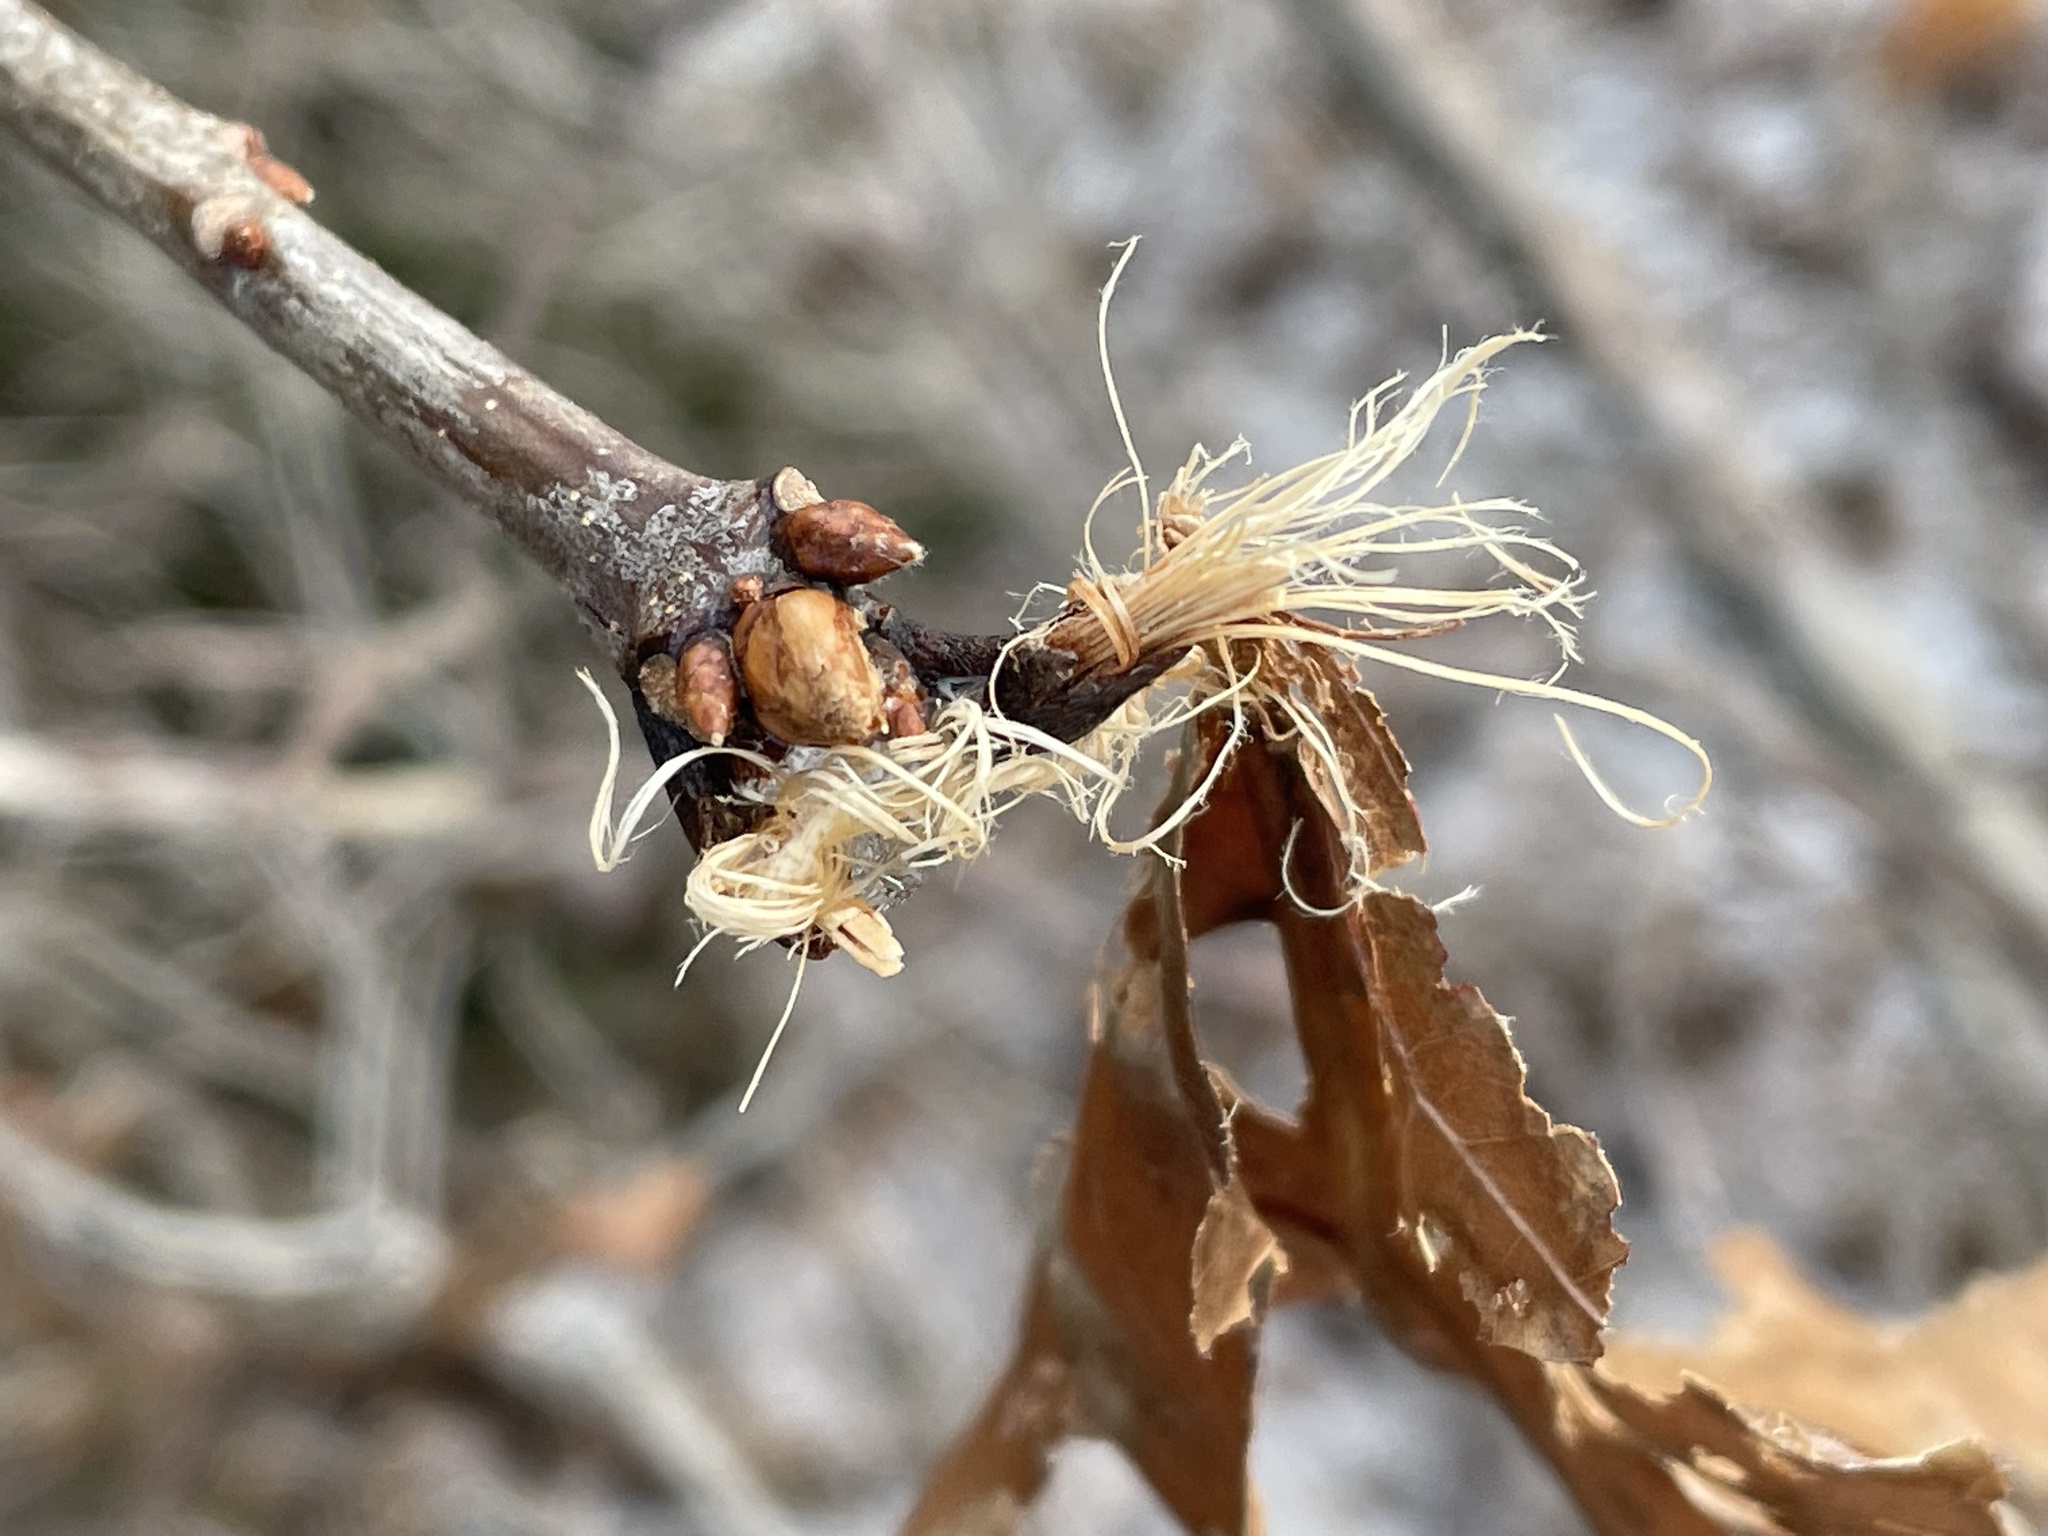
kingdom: Plantae
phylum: Tracheophyta
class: Magnoliopsida
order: Fagales
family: Fagaceae
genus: Quercus
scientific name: Quercus rubra
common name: Red oak
